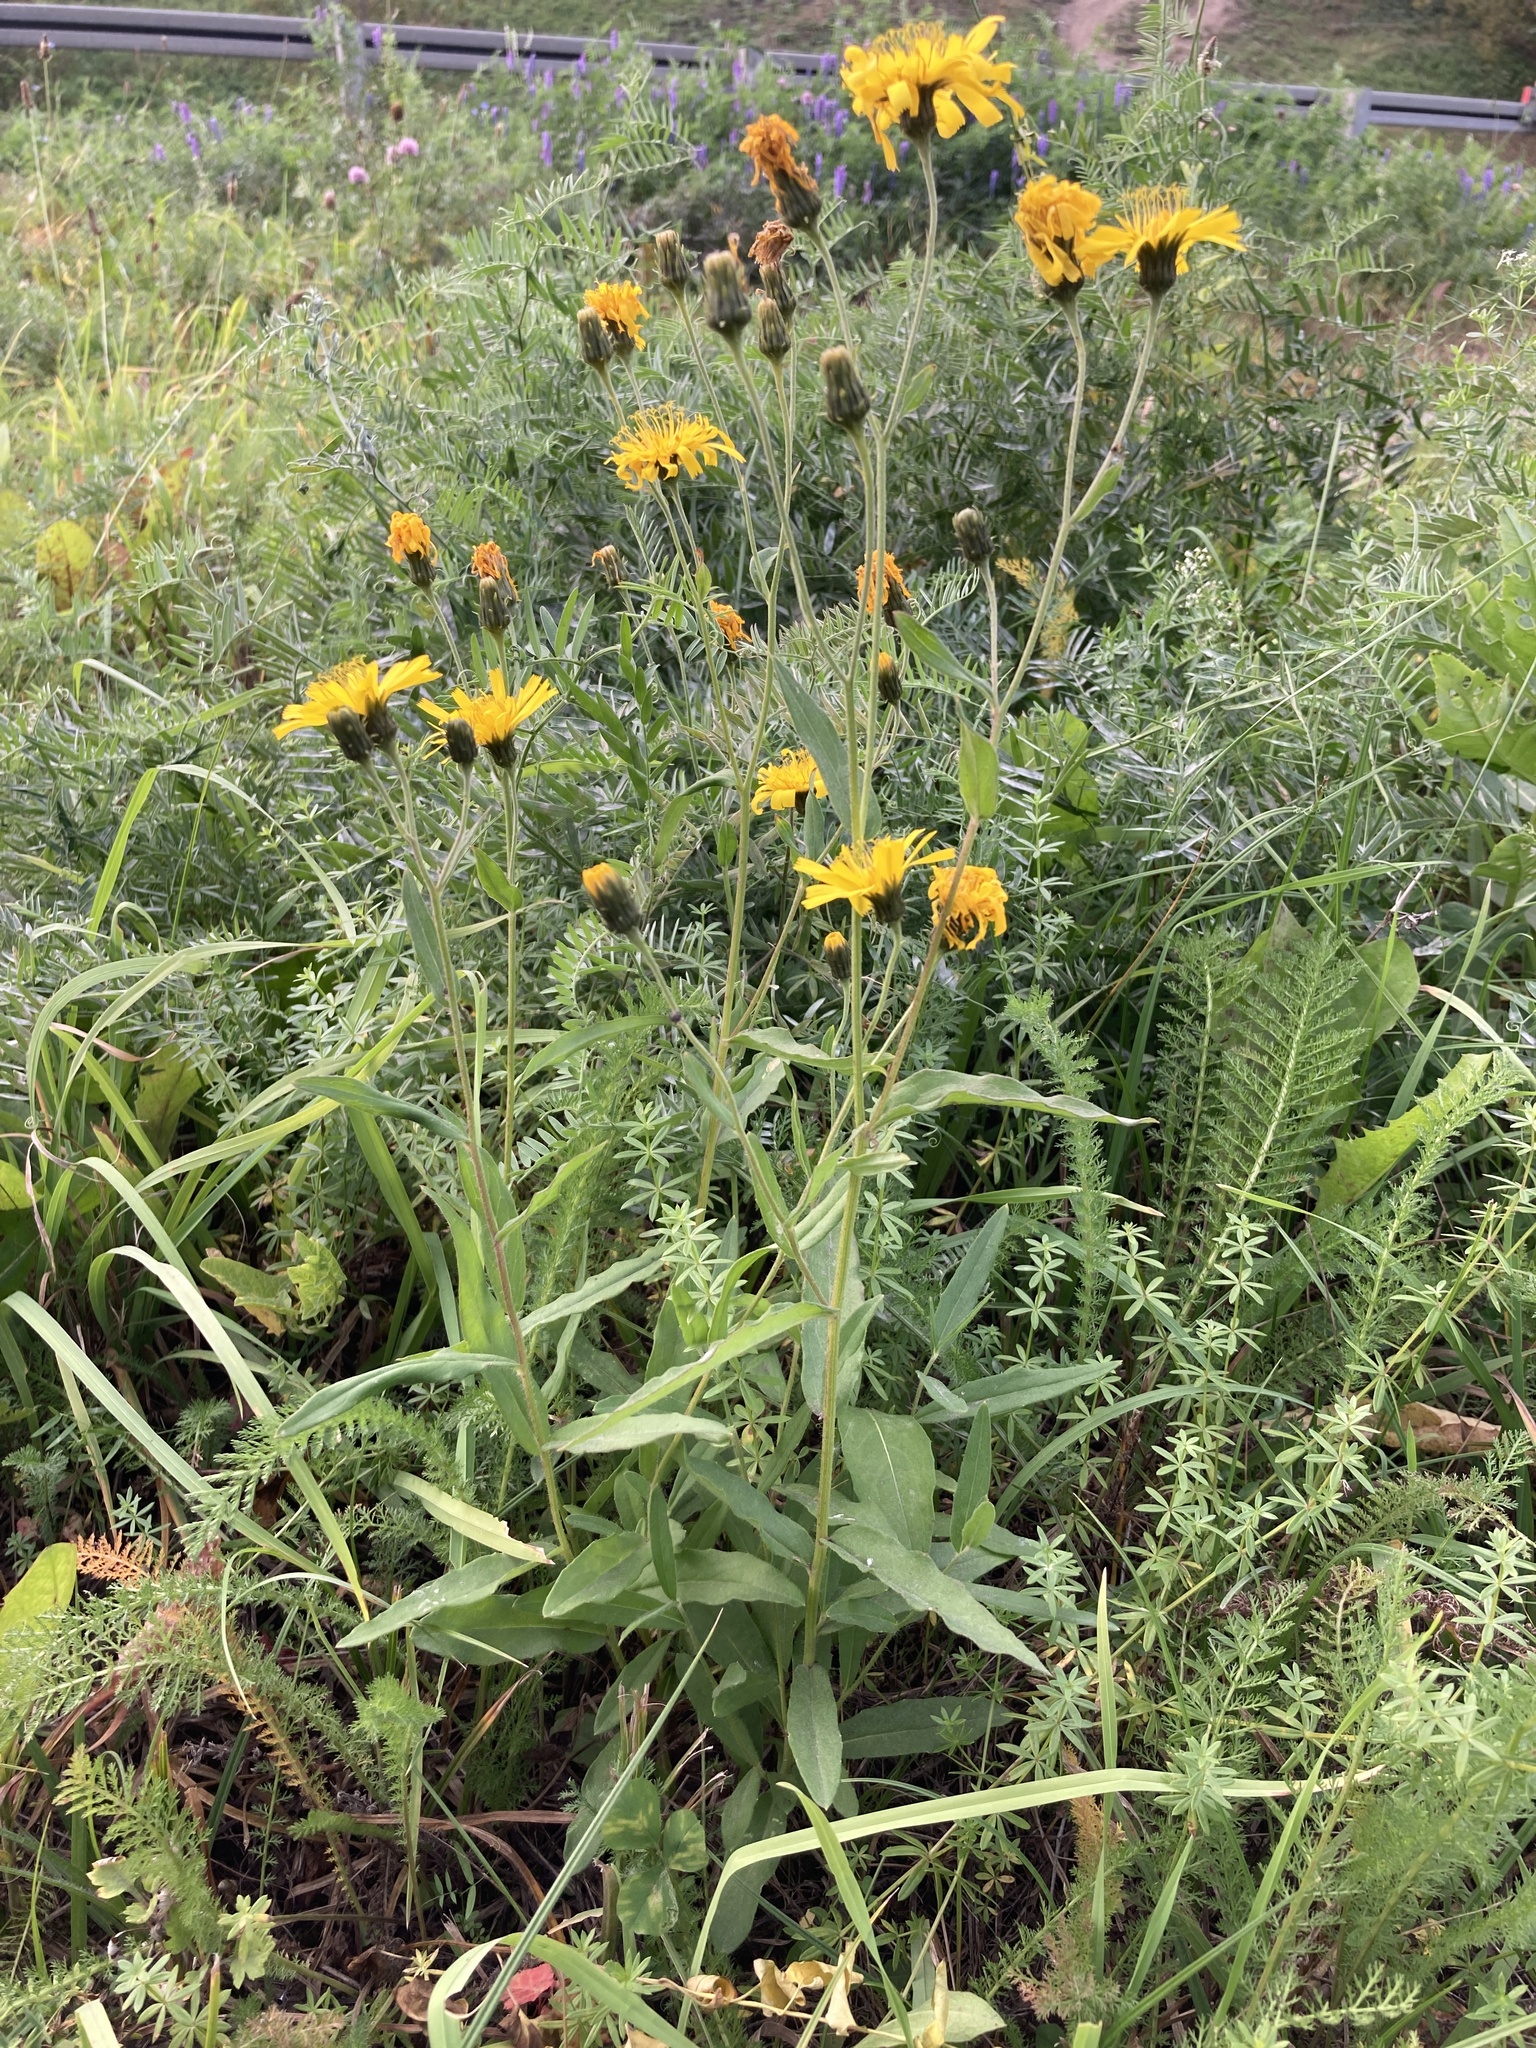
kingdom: Plantae
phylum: Tracheophyta
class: Magnoliopsida
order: Asterales
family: Asteraceae
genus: Hieracium
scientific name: Hieracium umbellatum
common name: Northern hawkweed
